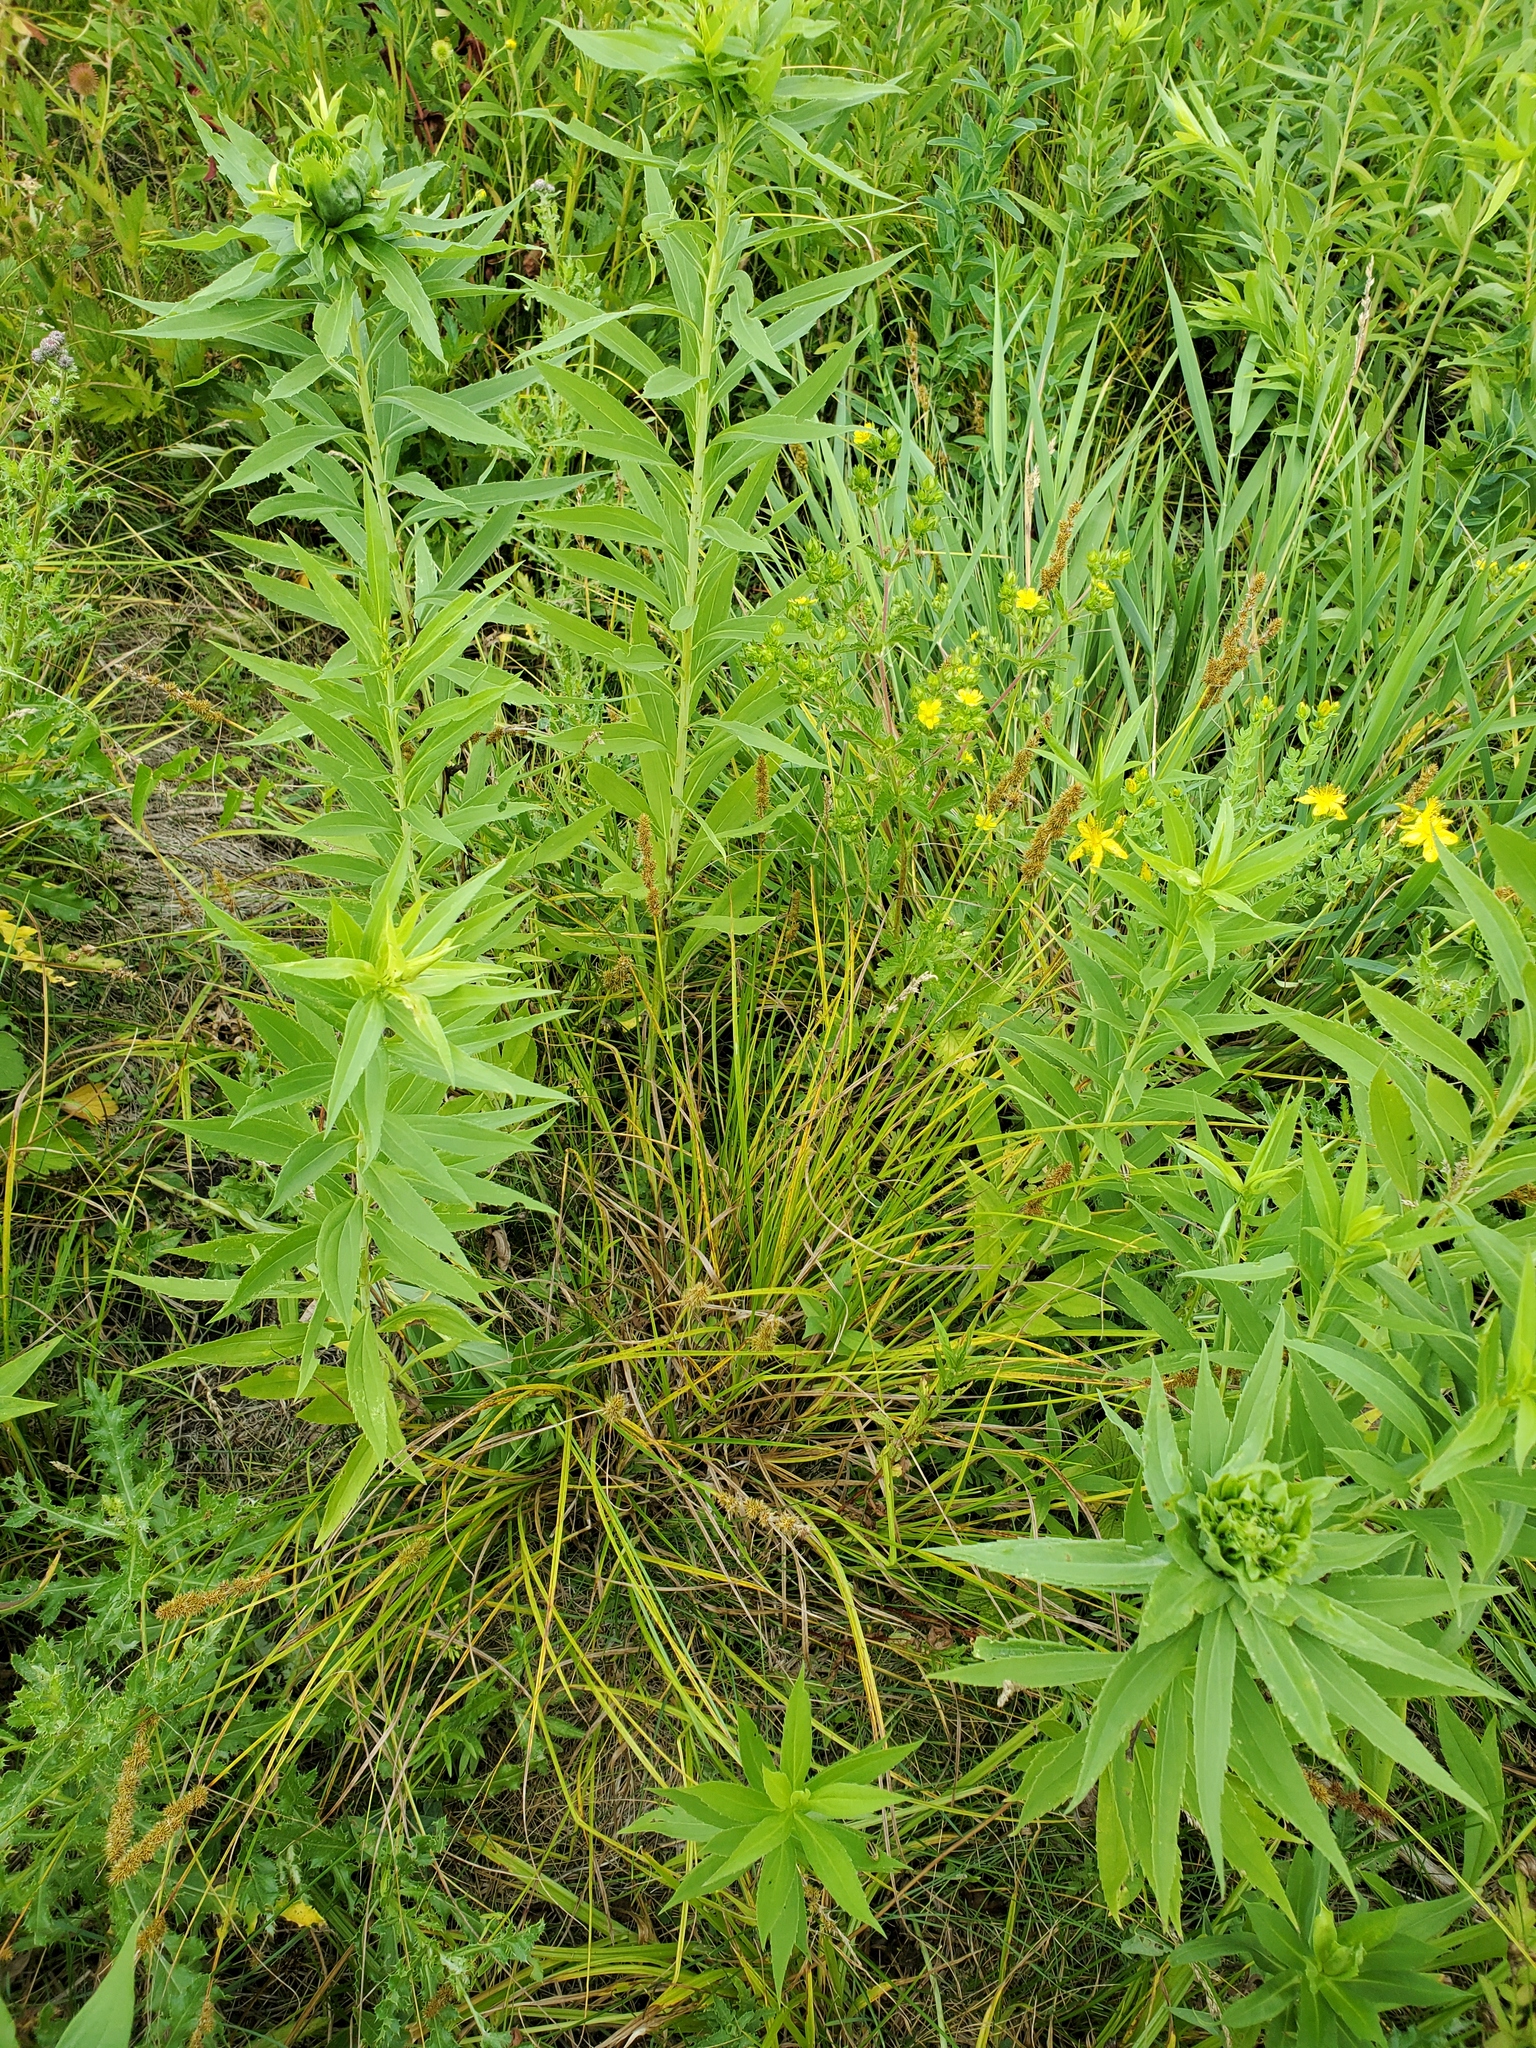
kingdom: Plantae
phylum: Tracheophyta
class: Liliopsida
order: Poales
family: Cyperaceae
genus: Carex
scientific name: Carex vulpinoidea
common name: American fox-sedge
